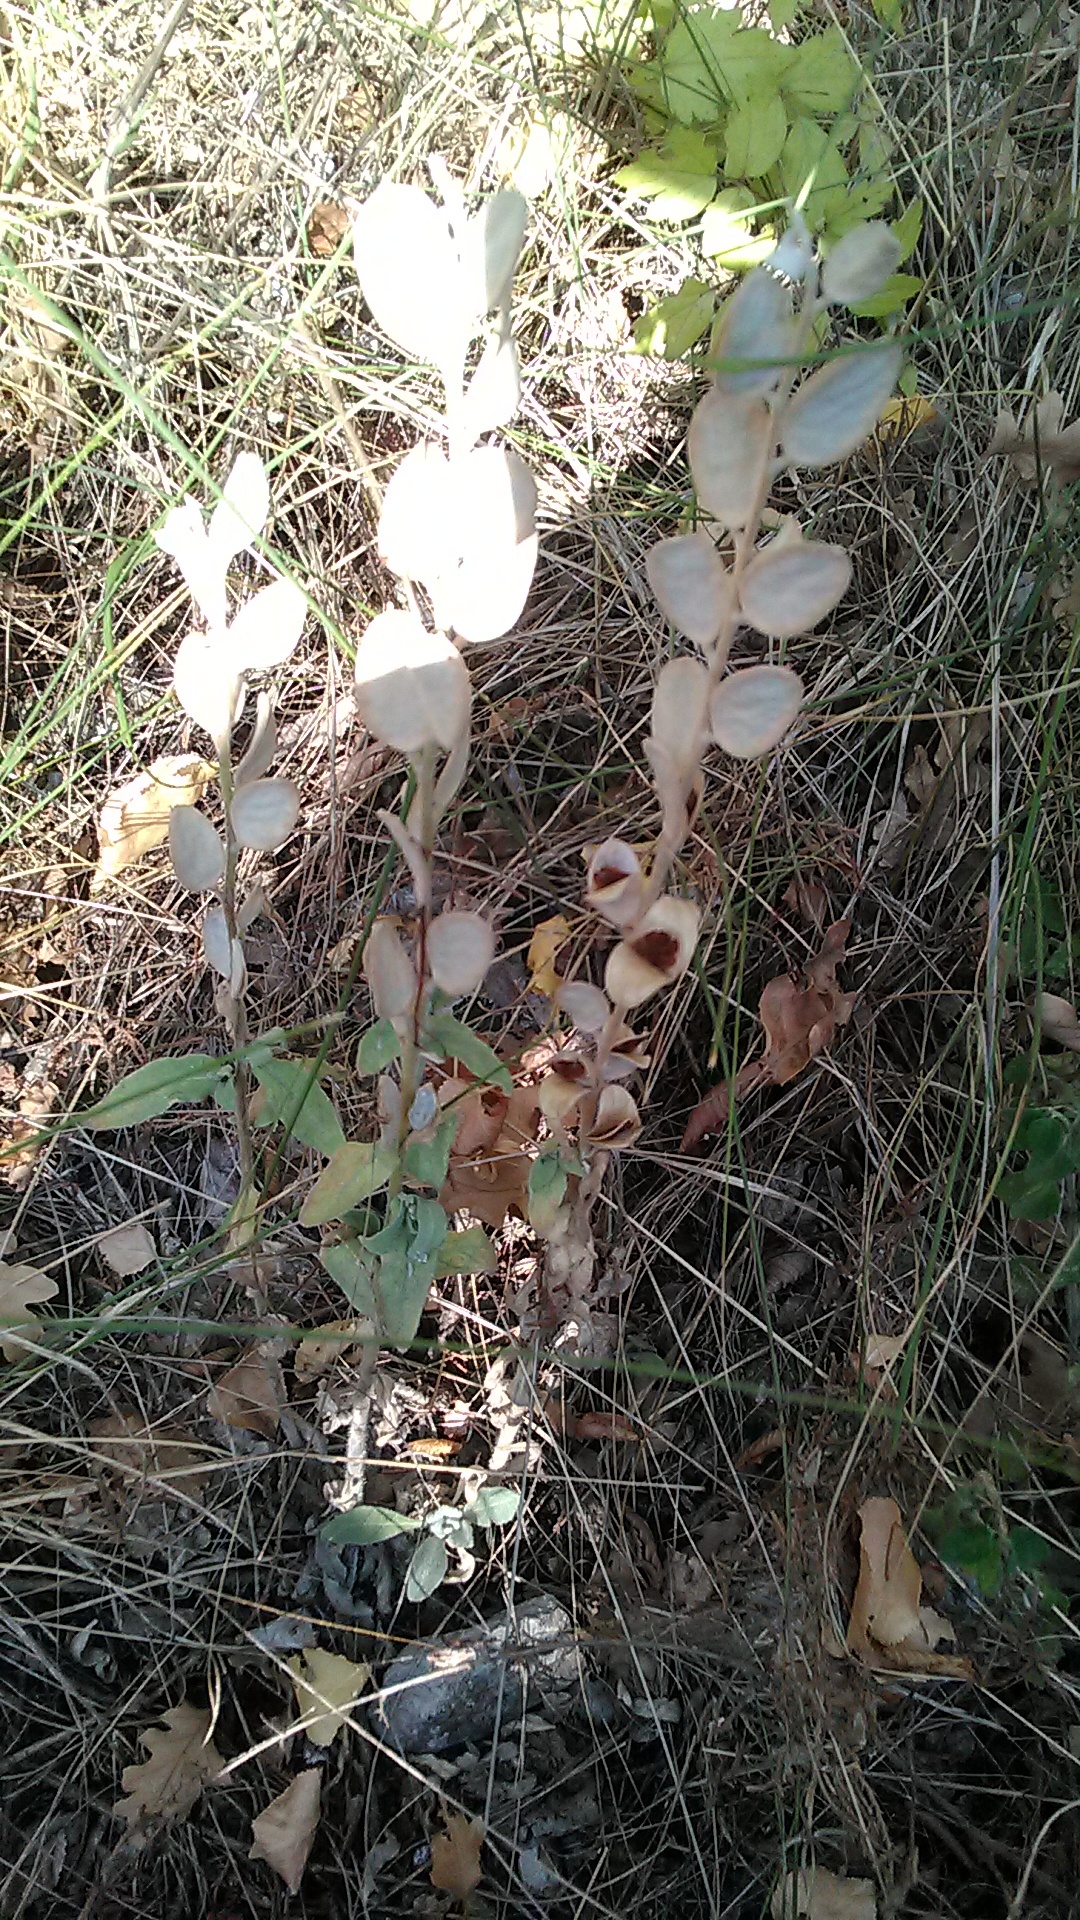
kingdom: Plantae
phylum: Tracheophyta
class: Magnoliopsida
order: Brassicales
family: Brassicaceae
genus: Fibigia
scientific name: Fibigia clypeata
